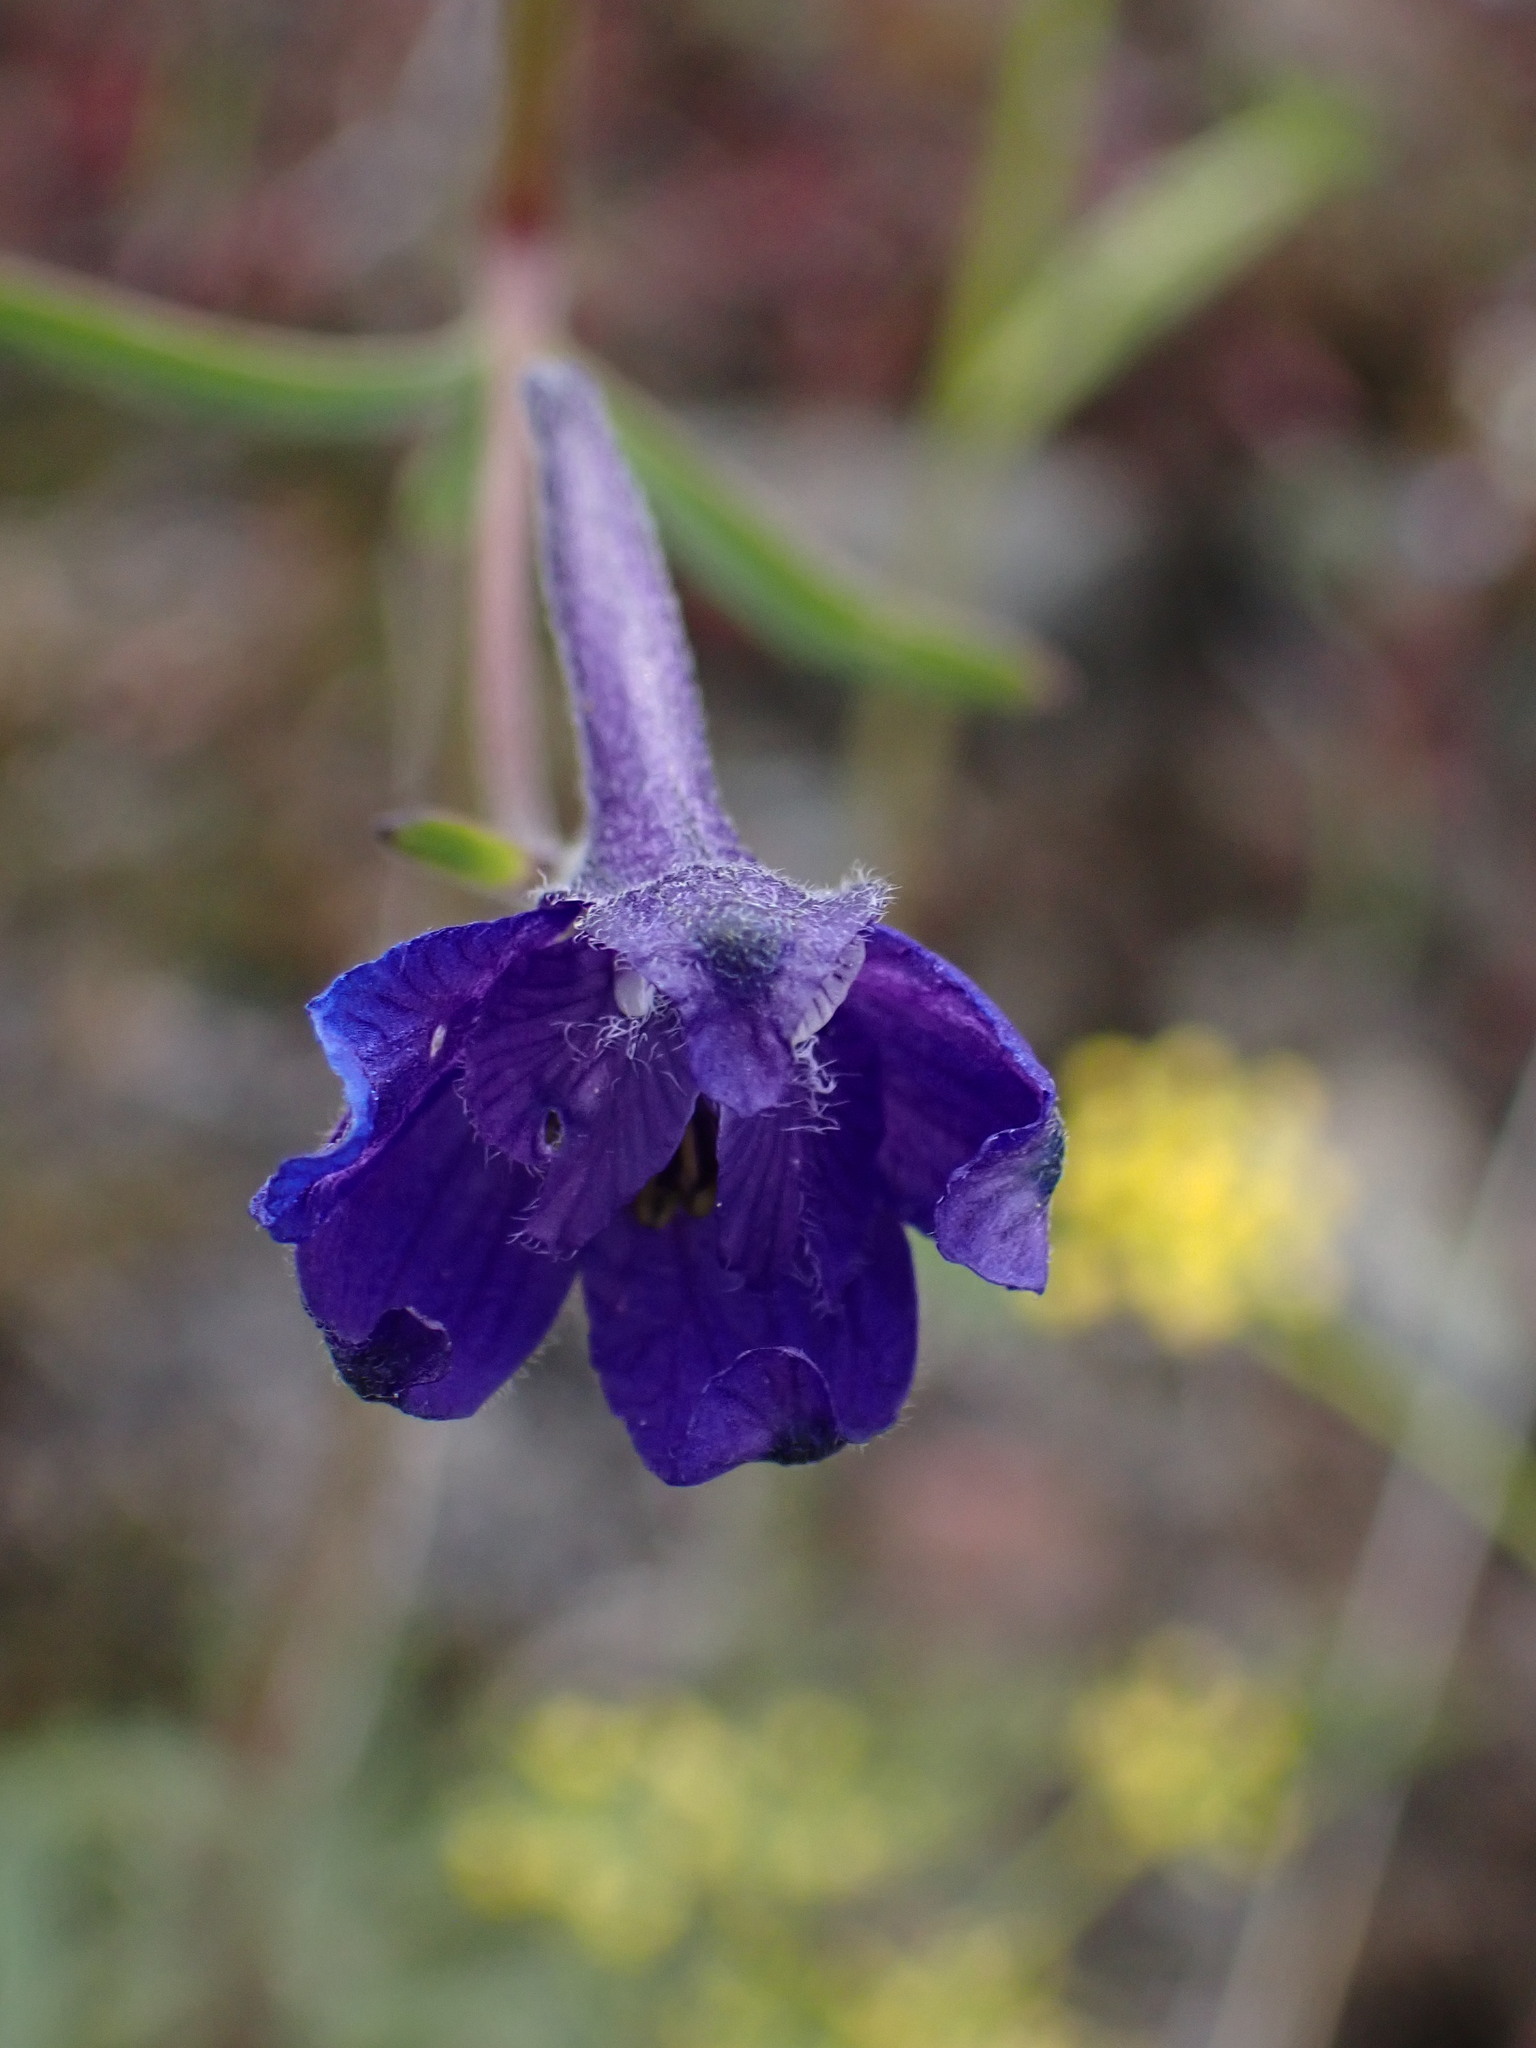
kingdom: Plantae
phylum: Tracheophyta
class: Magnoliopsida
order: Ranunculales
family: Ranunculaceae
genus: Delphinium
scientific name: Delphinium nuttallianum
